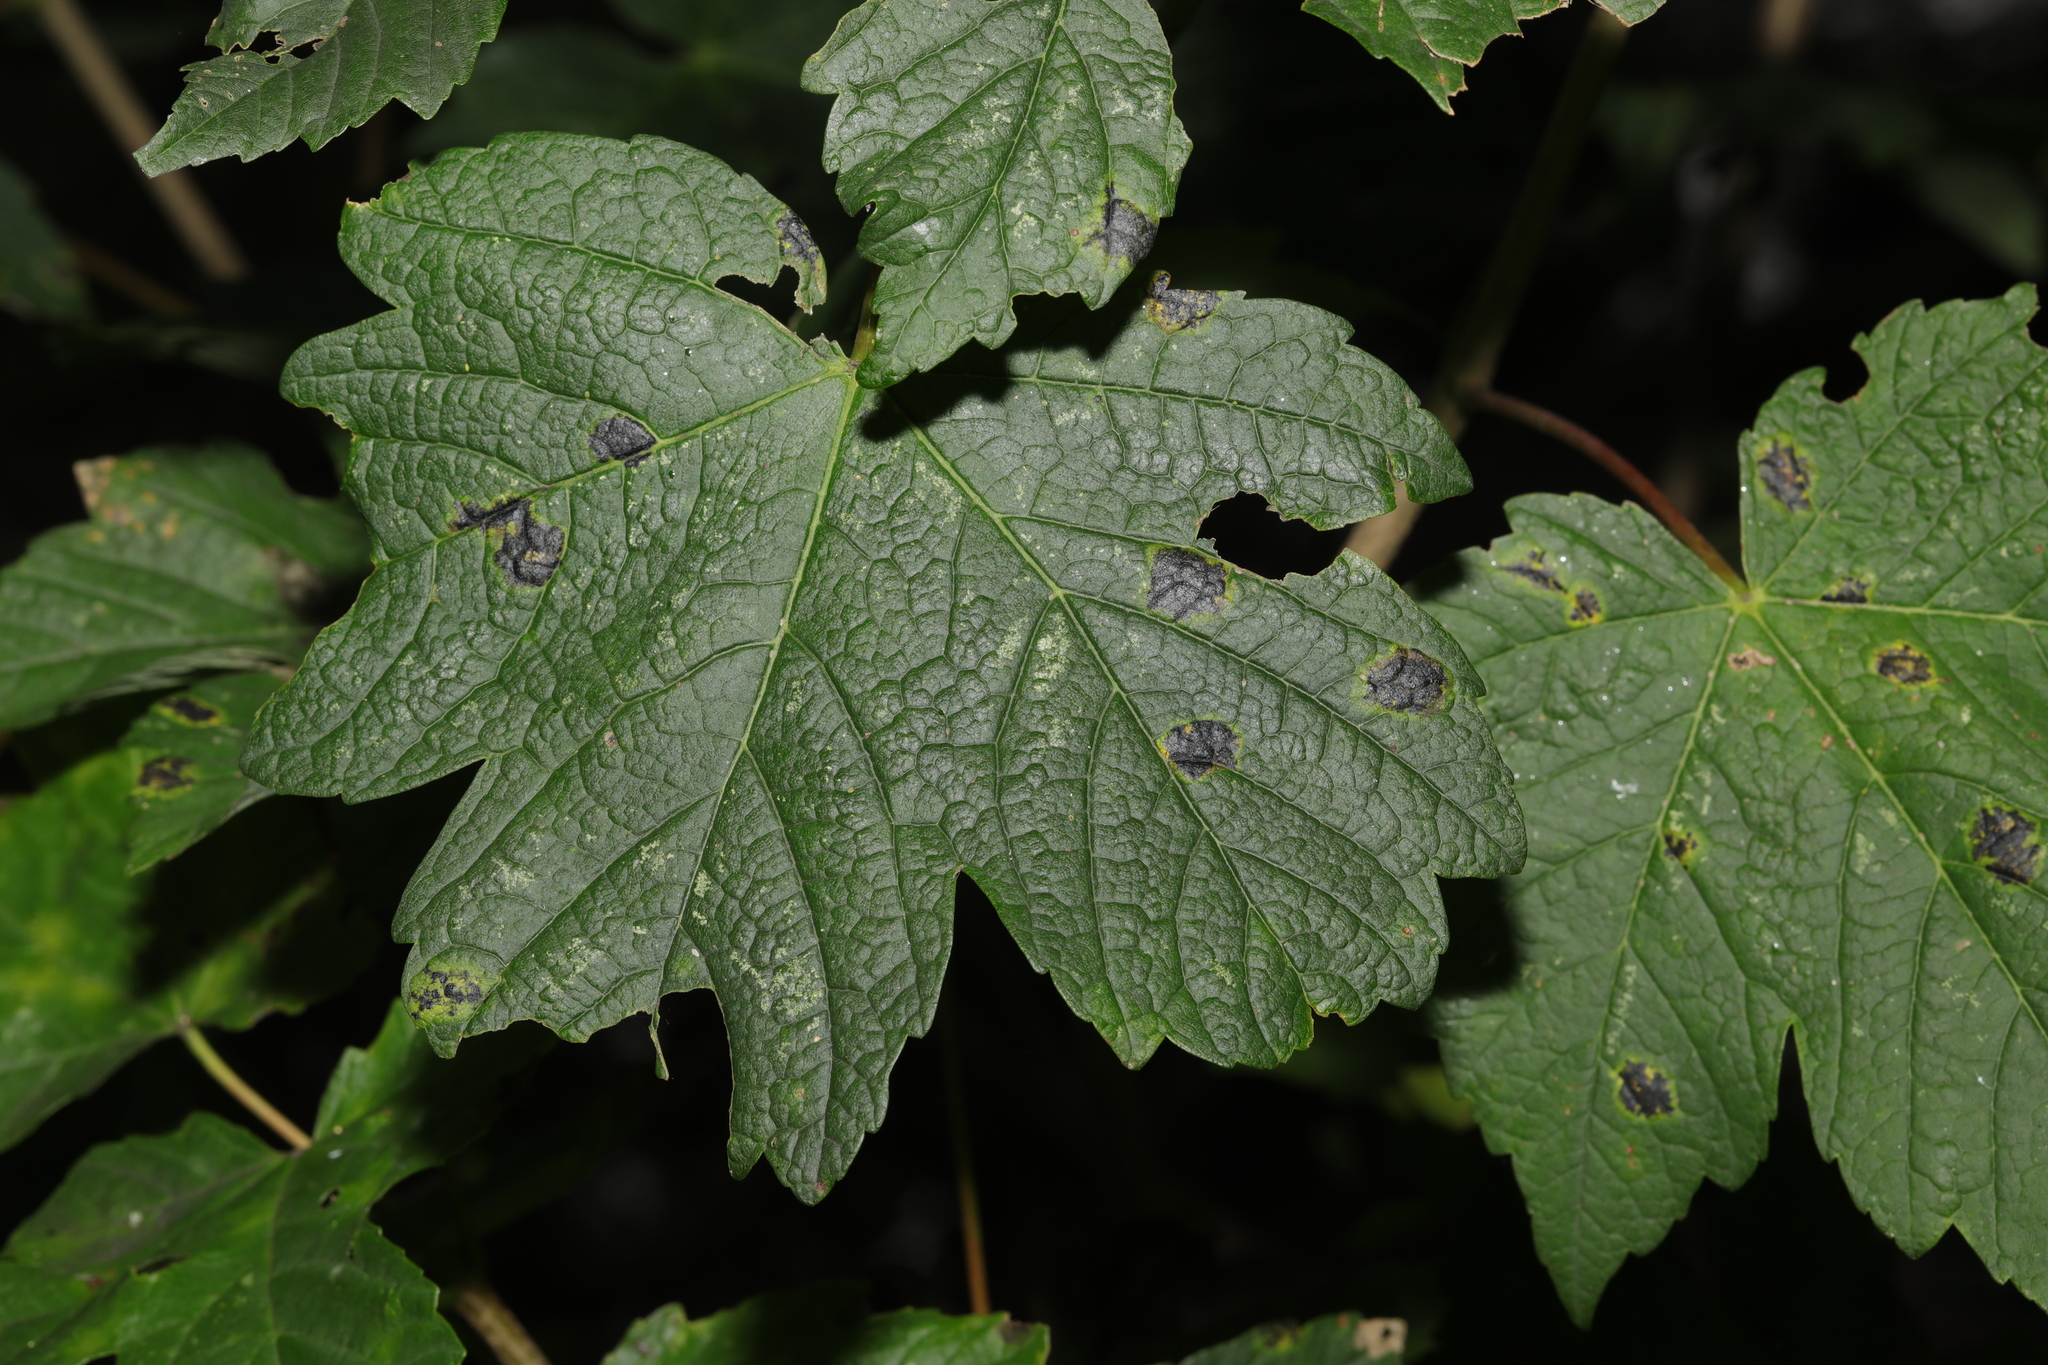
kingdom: Plantae
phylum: Tracheophyta
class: Magnoliopsida
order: Sapindales
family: Sapindaceae
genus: Acer
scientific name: Acer pseudoplatanus
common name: Sycamore
